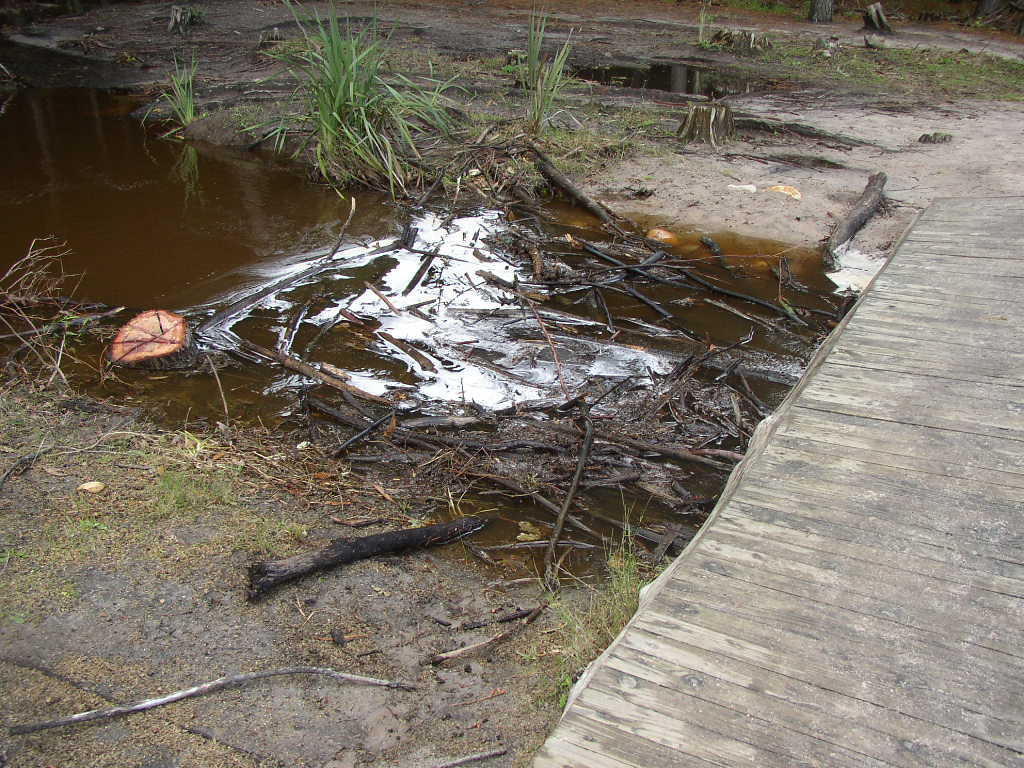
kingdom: Plantae
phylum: Tracheophyta
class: Liliopsida
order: Asparagales
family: Iridaceae
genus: Aristea
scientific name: Aristea capitata
